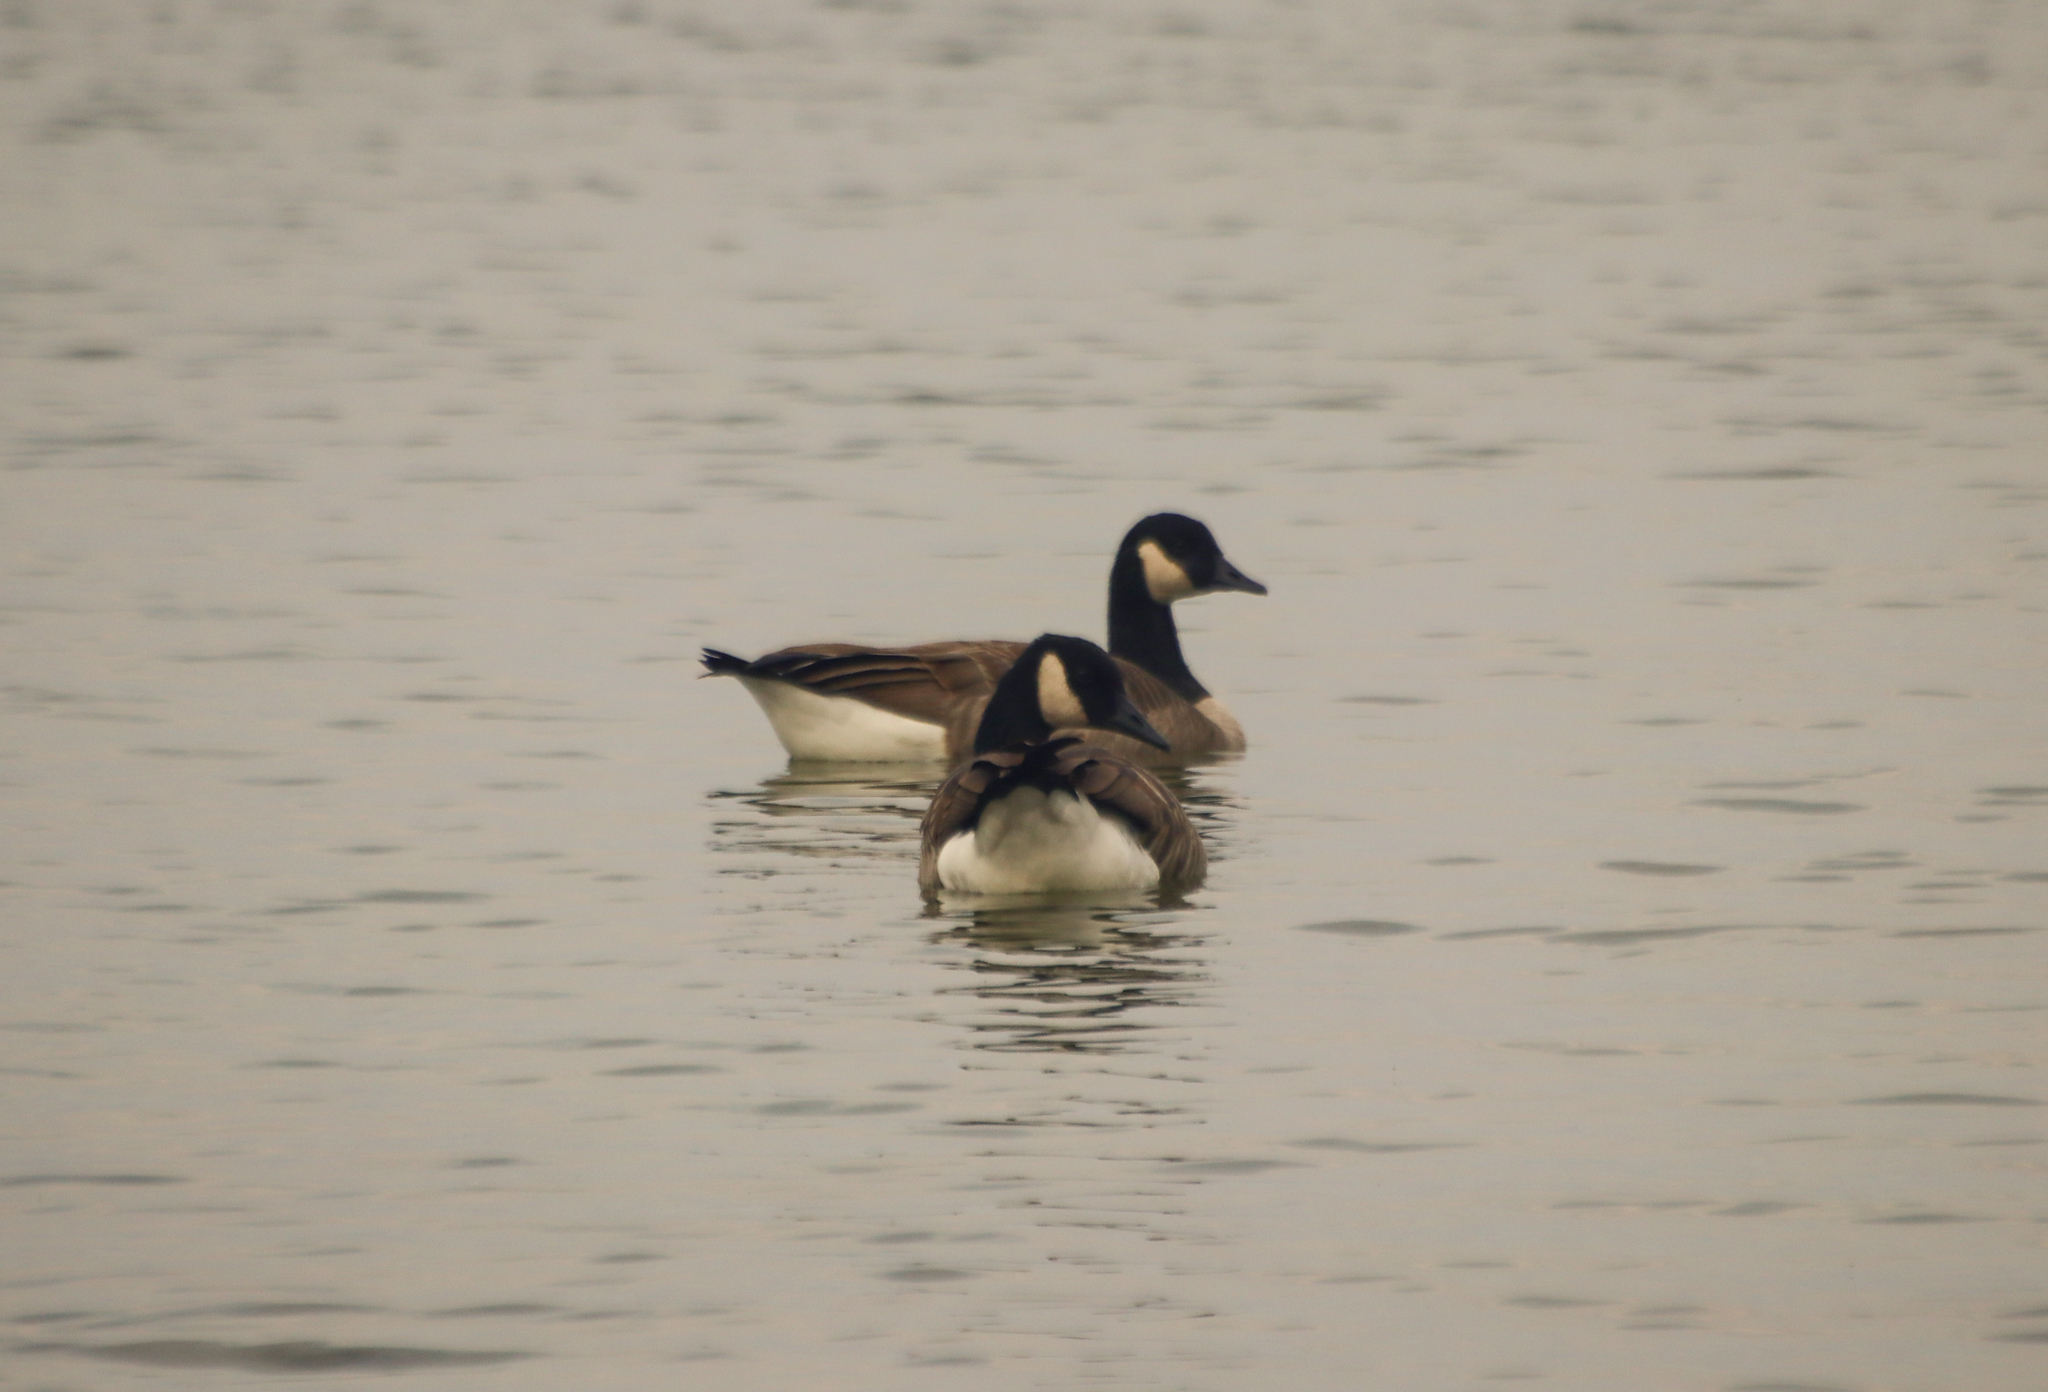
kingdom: Animalia
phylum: Chordata
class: Aves
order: Anseriformes
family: Anatidae
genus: Branta
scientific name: Branta canadensis
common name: Canada goose
